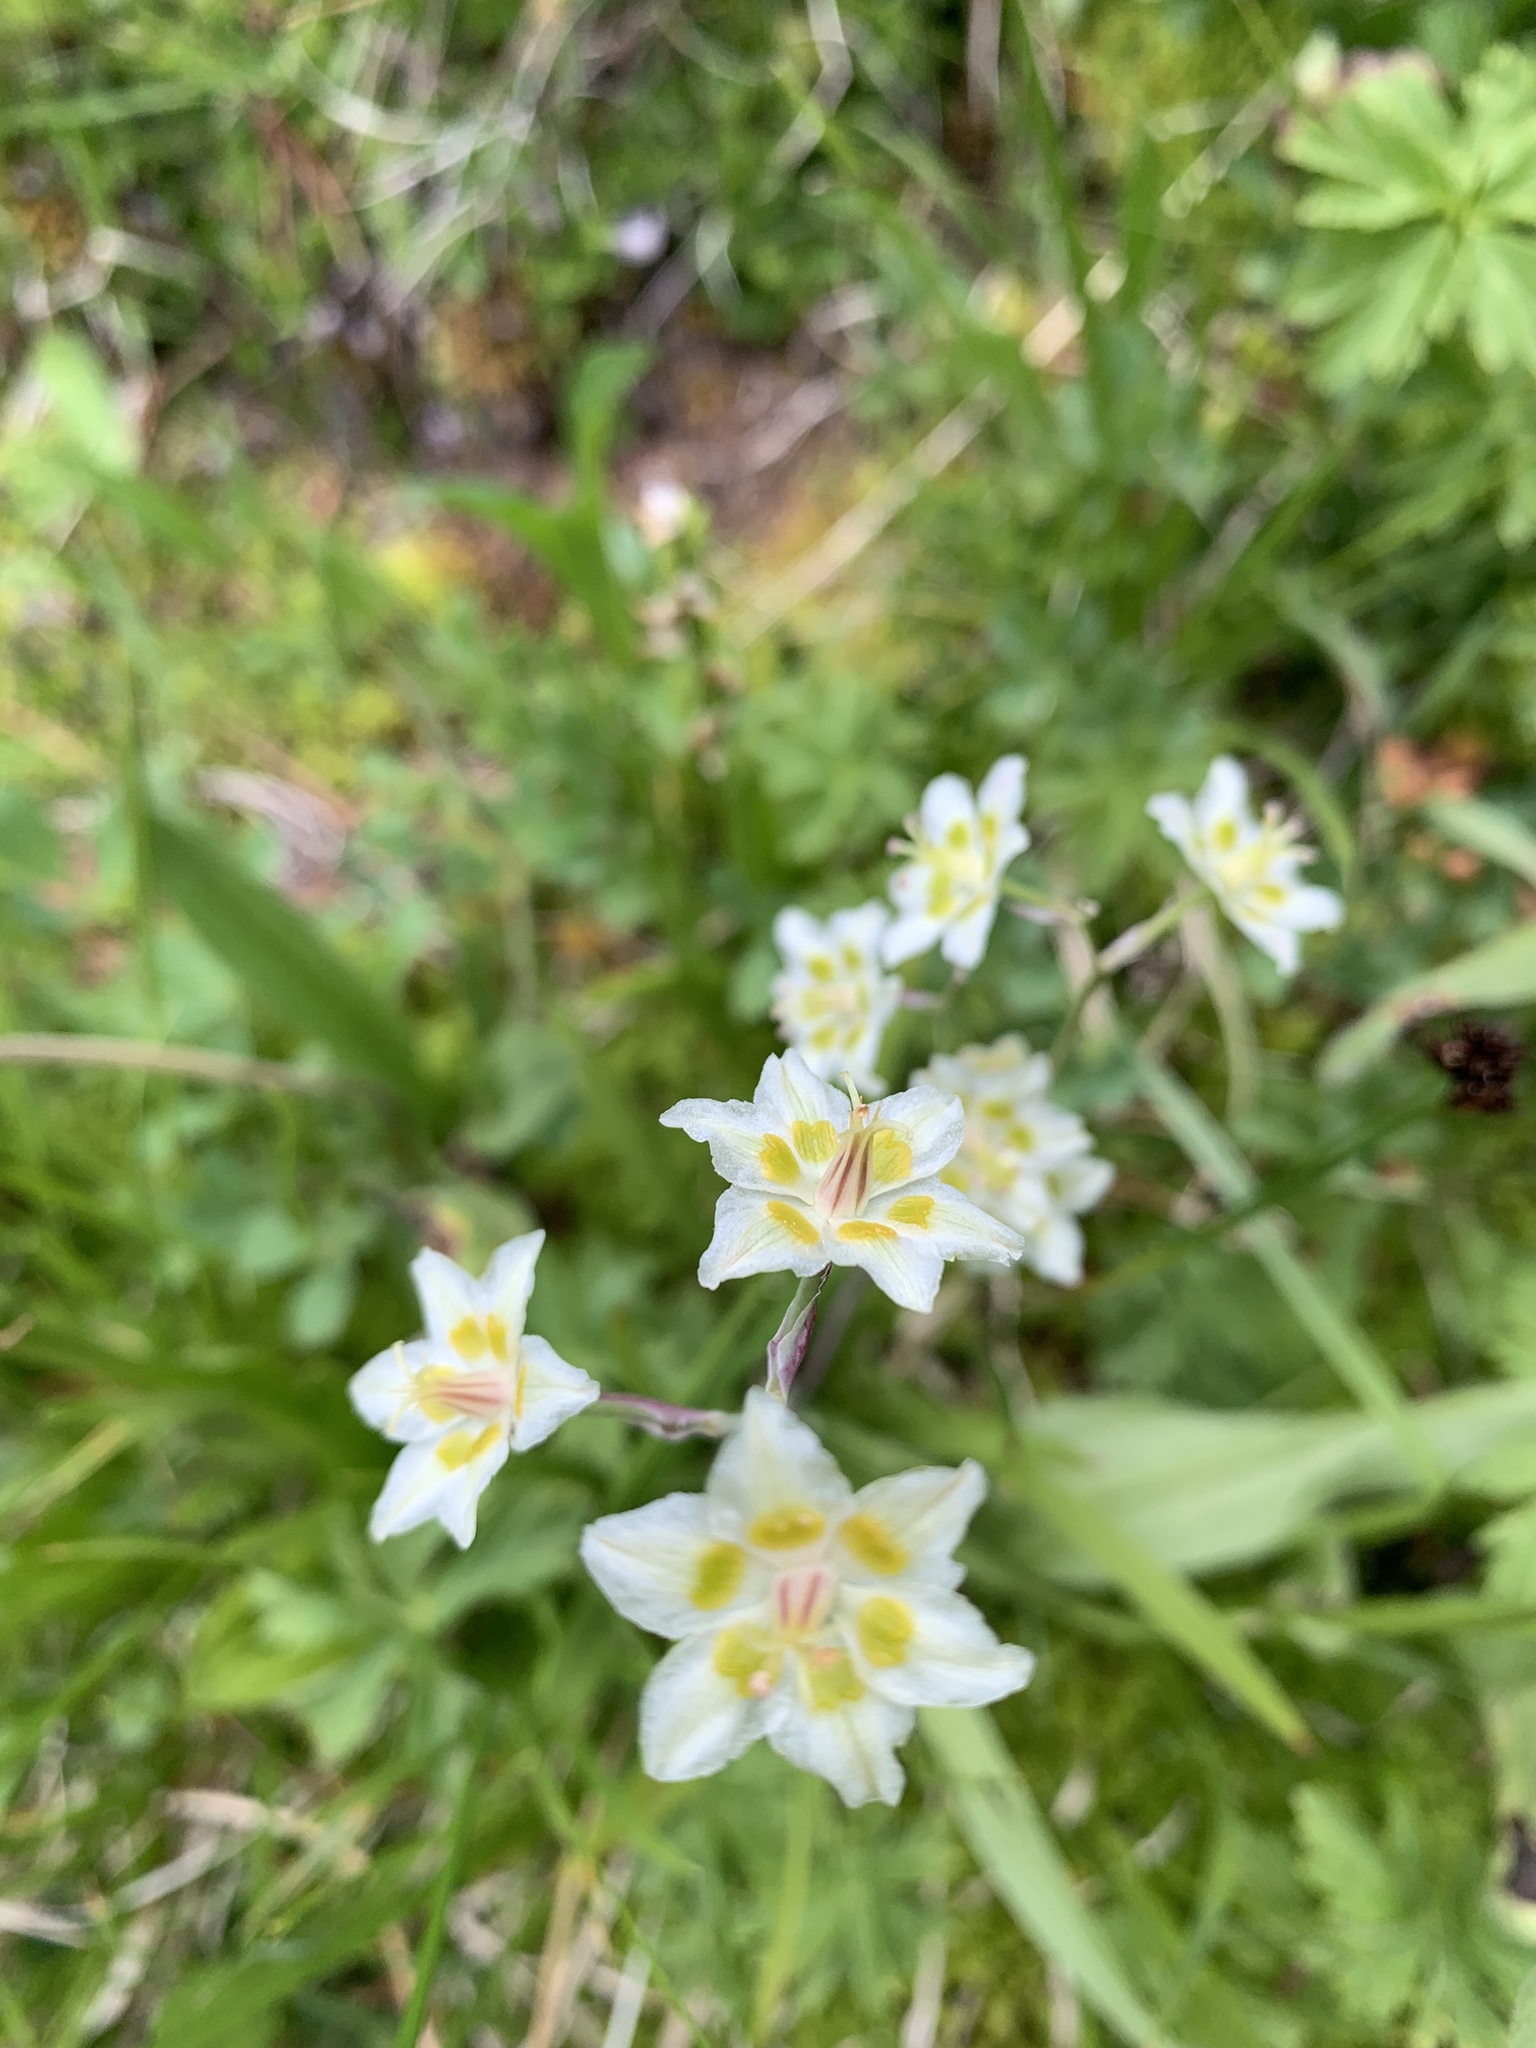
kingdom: Plantae
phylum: Tracheophyta
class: Liliopsida
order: Liliales
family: Melanthiaceae
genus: Anticlea
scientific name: Anticlea elegans
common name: Mountain death camas
